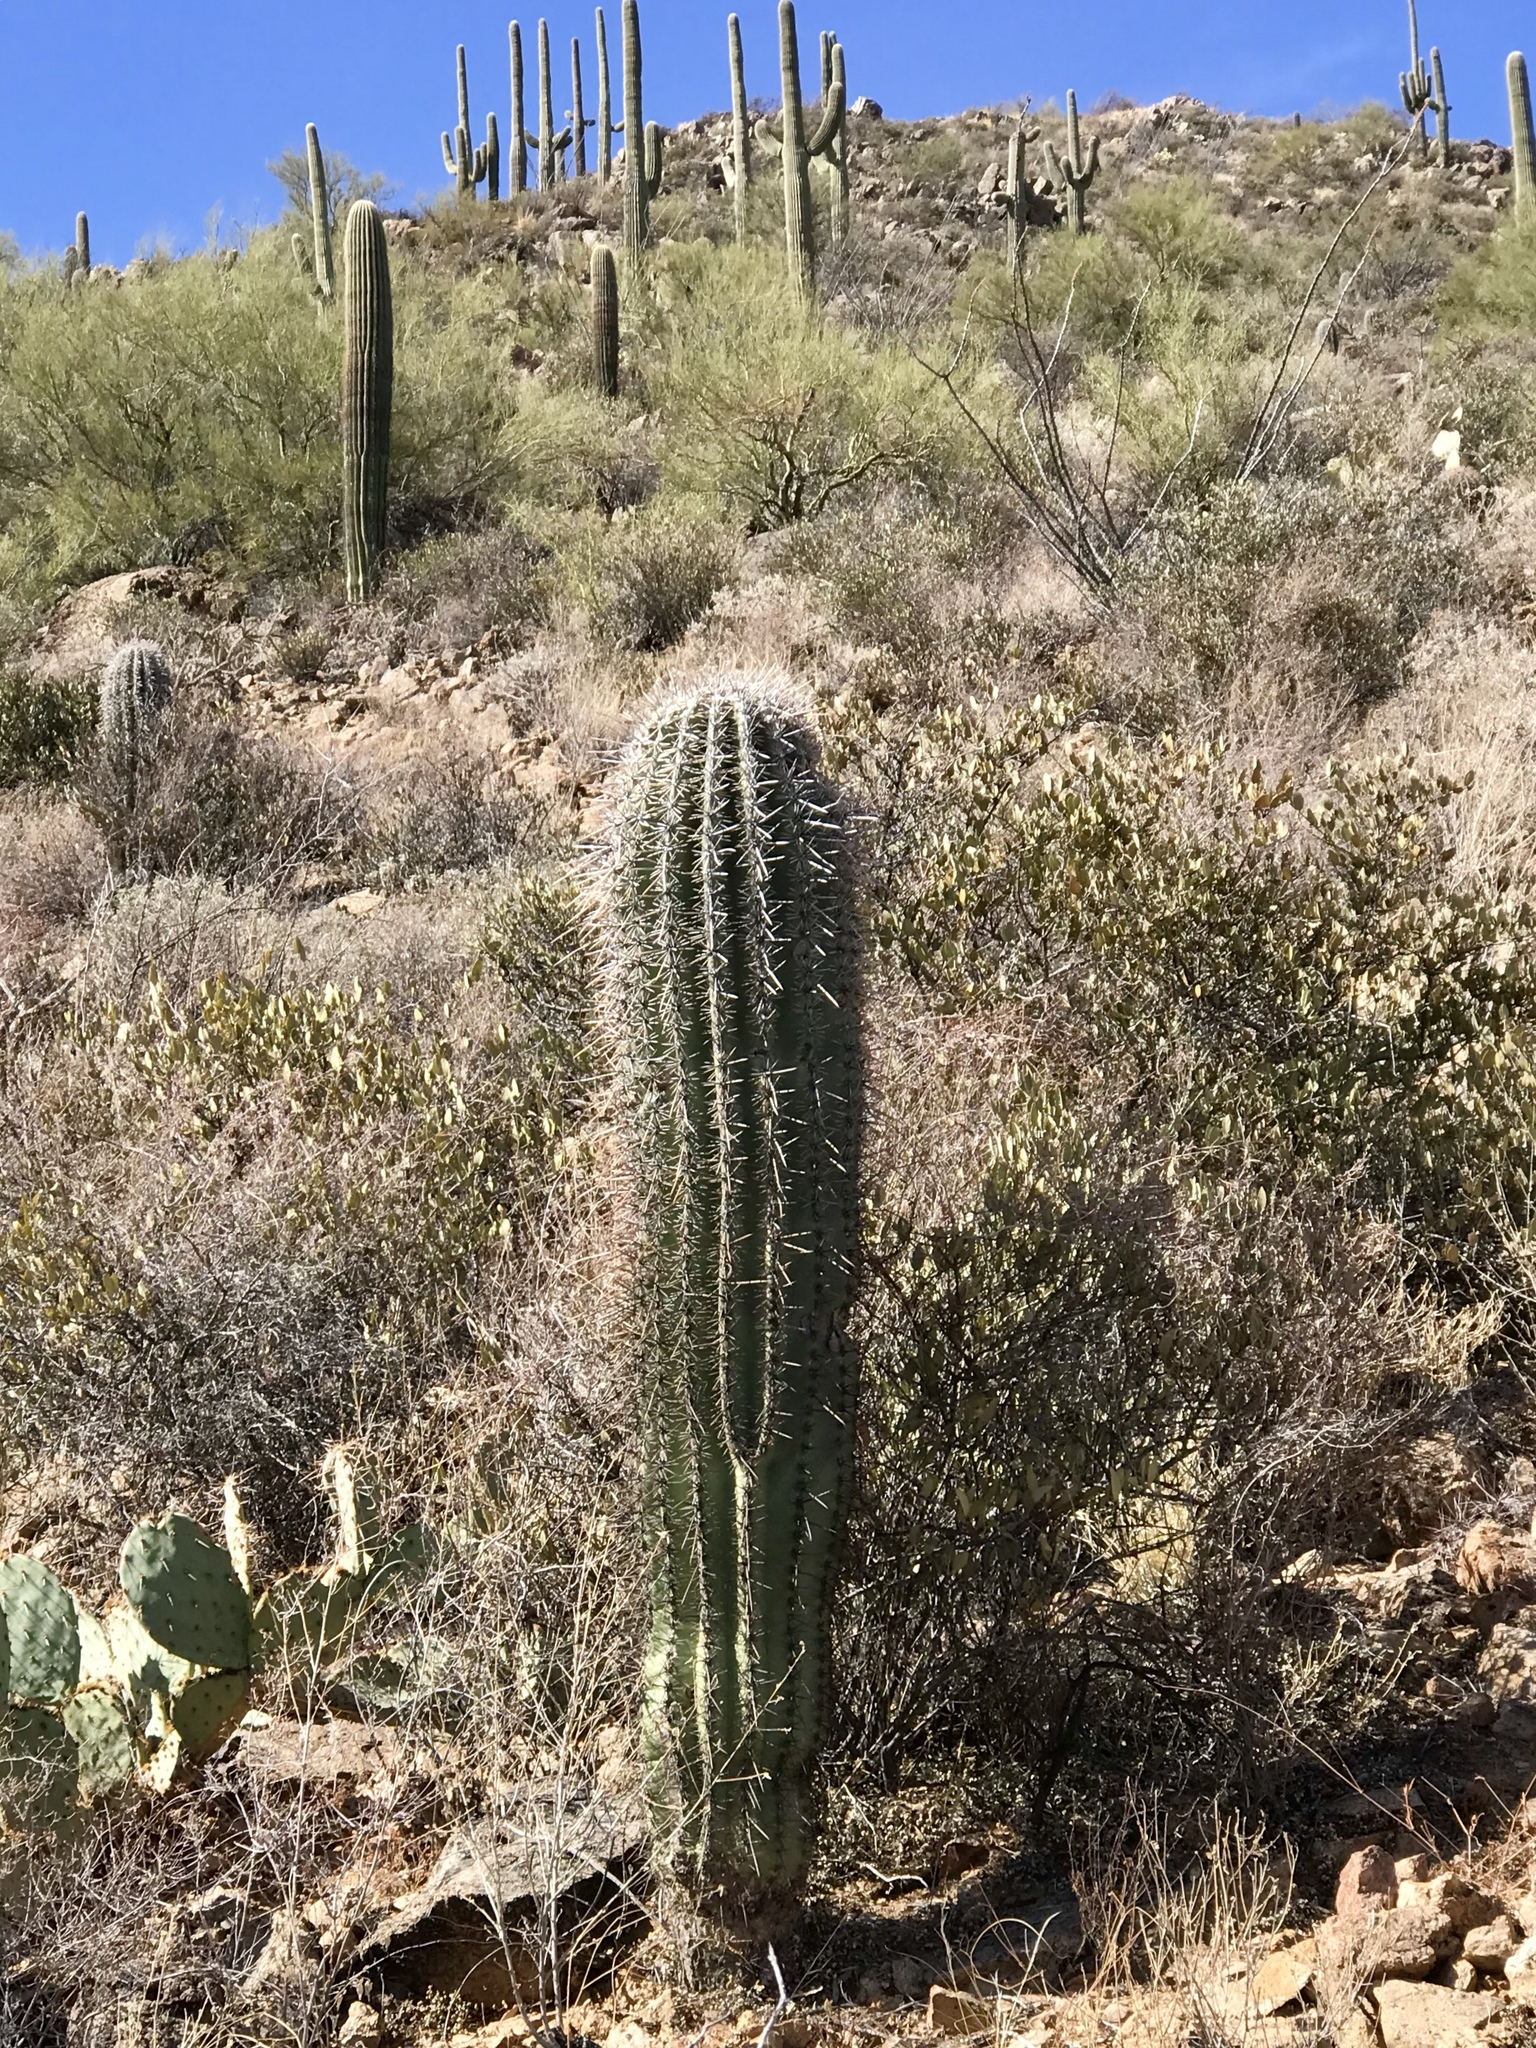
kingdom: Plantae
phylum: Tracheophyta
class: Magnoliopsida
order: Caryophyllales
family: Cactaceae
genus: Carnegiea
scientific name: Carnegiea gigantea
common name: Saguaro
